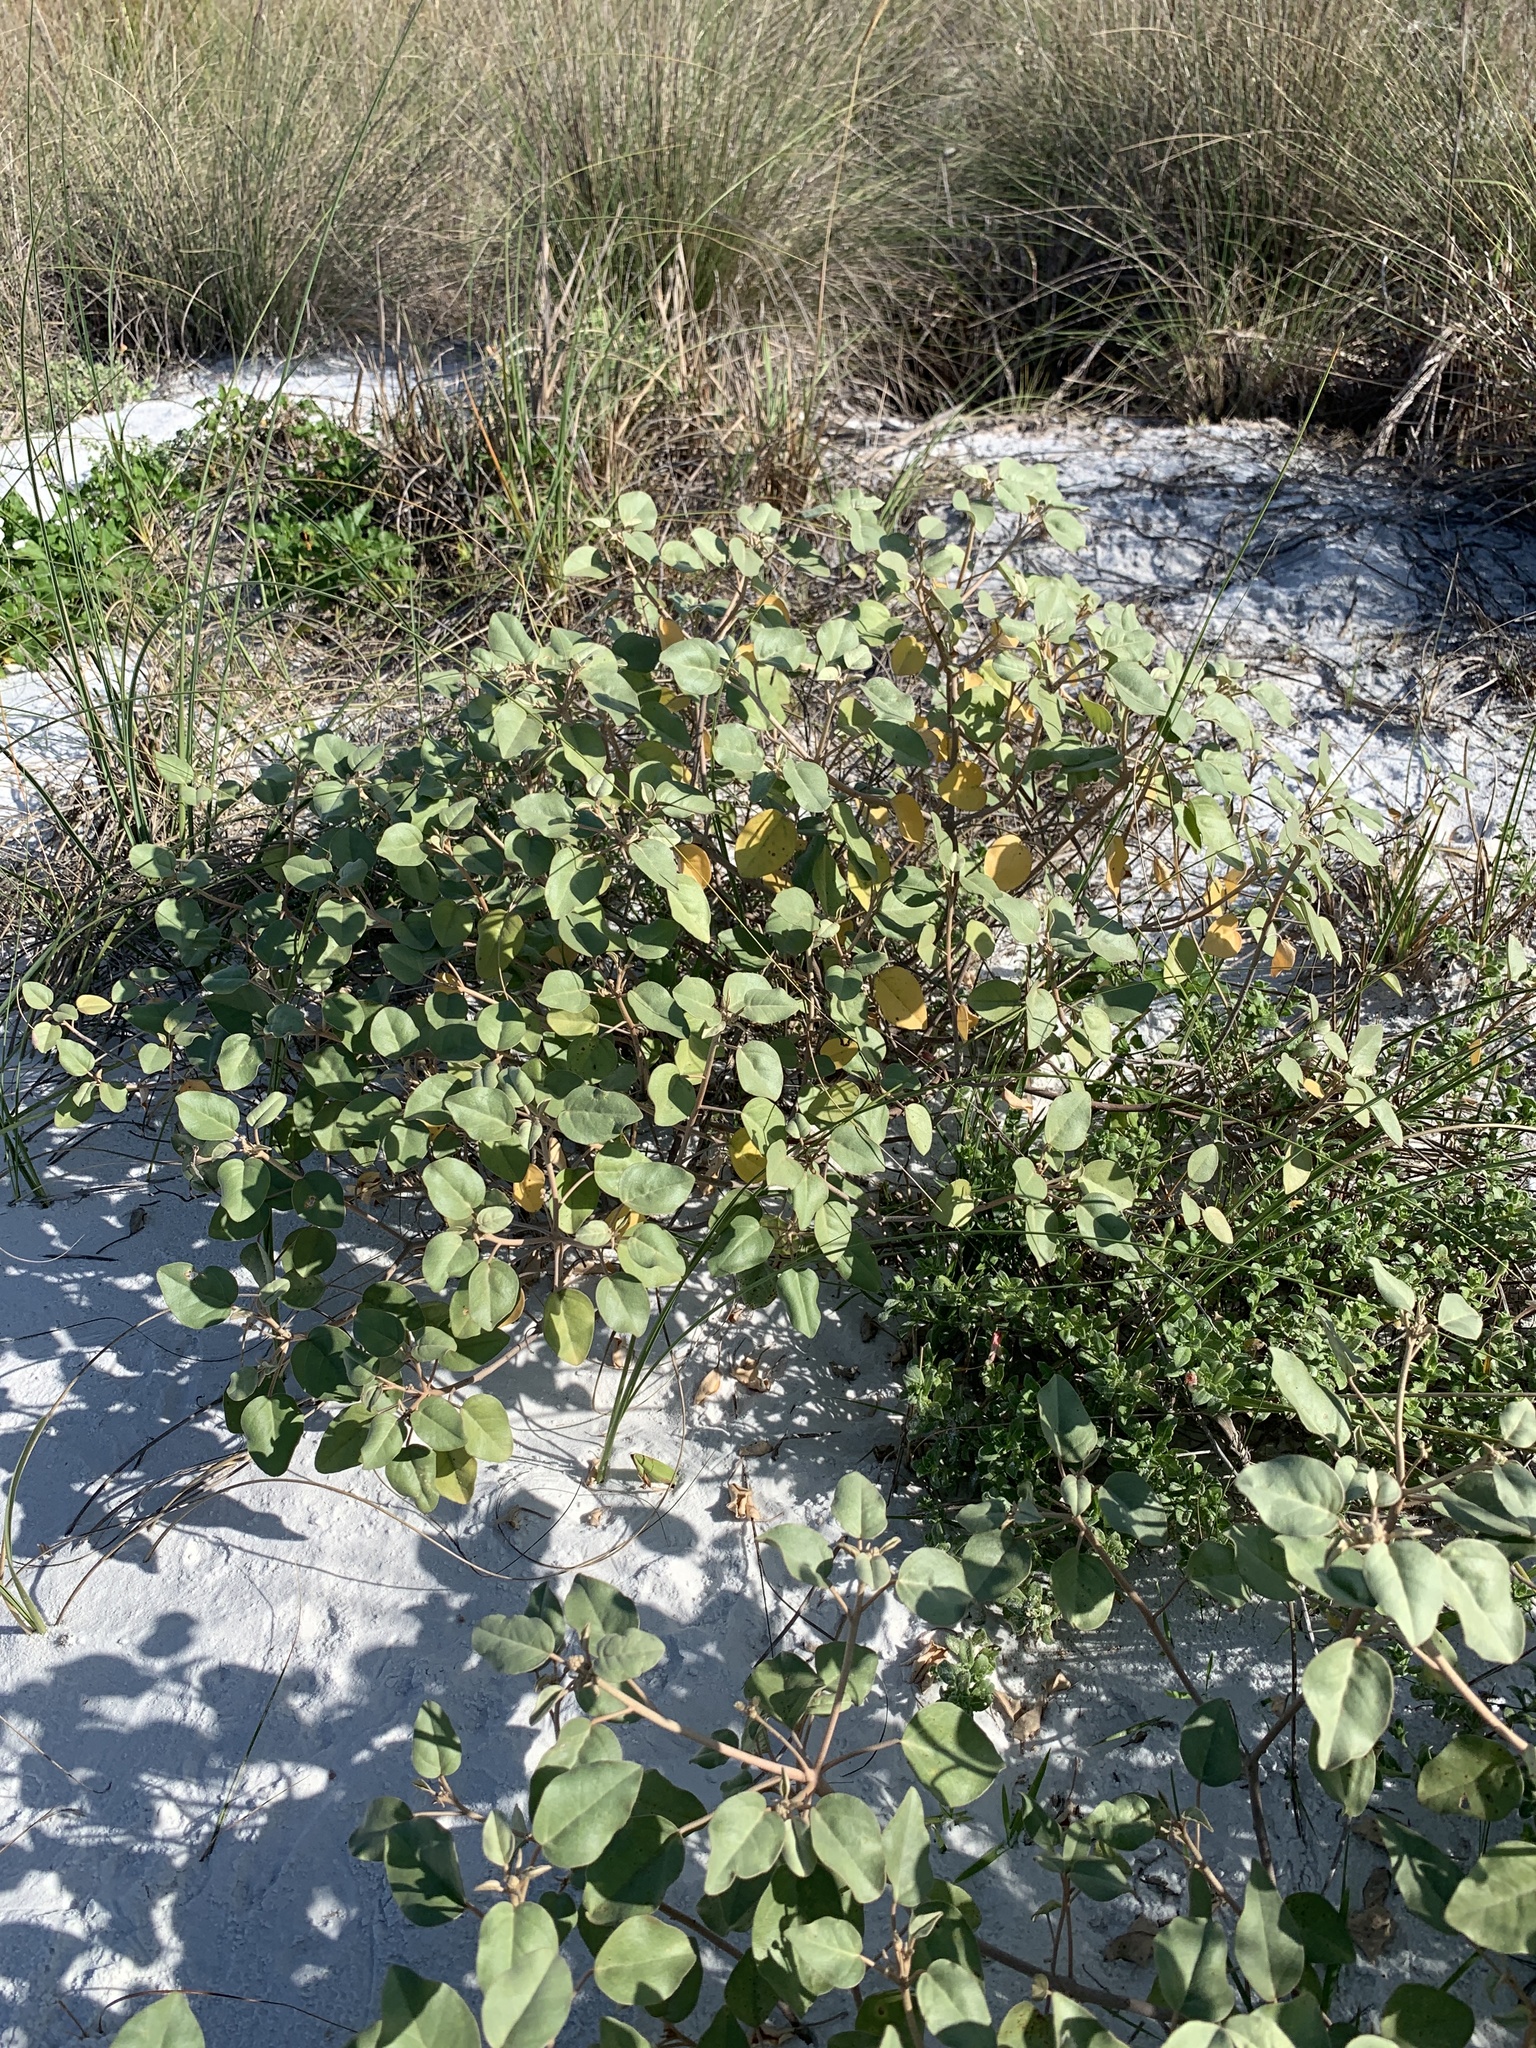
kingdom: Plantae
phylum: Tracheophyta
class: Magnoliopsida
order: Malpighiales
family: Euphorbiaceae
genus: Croton
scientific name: Croton punctatus
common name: Beach-tea
